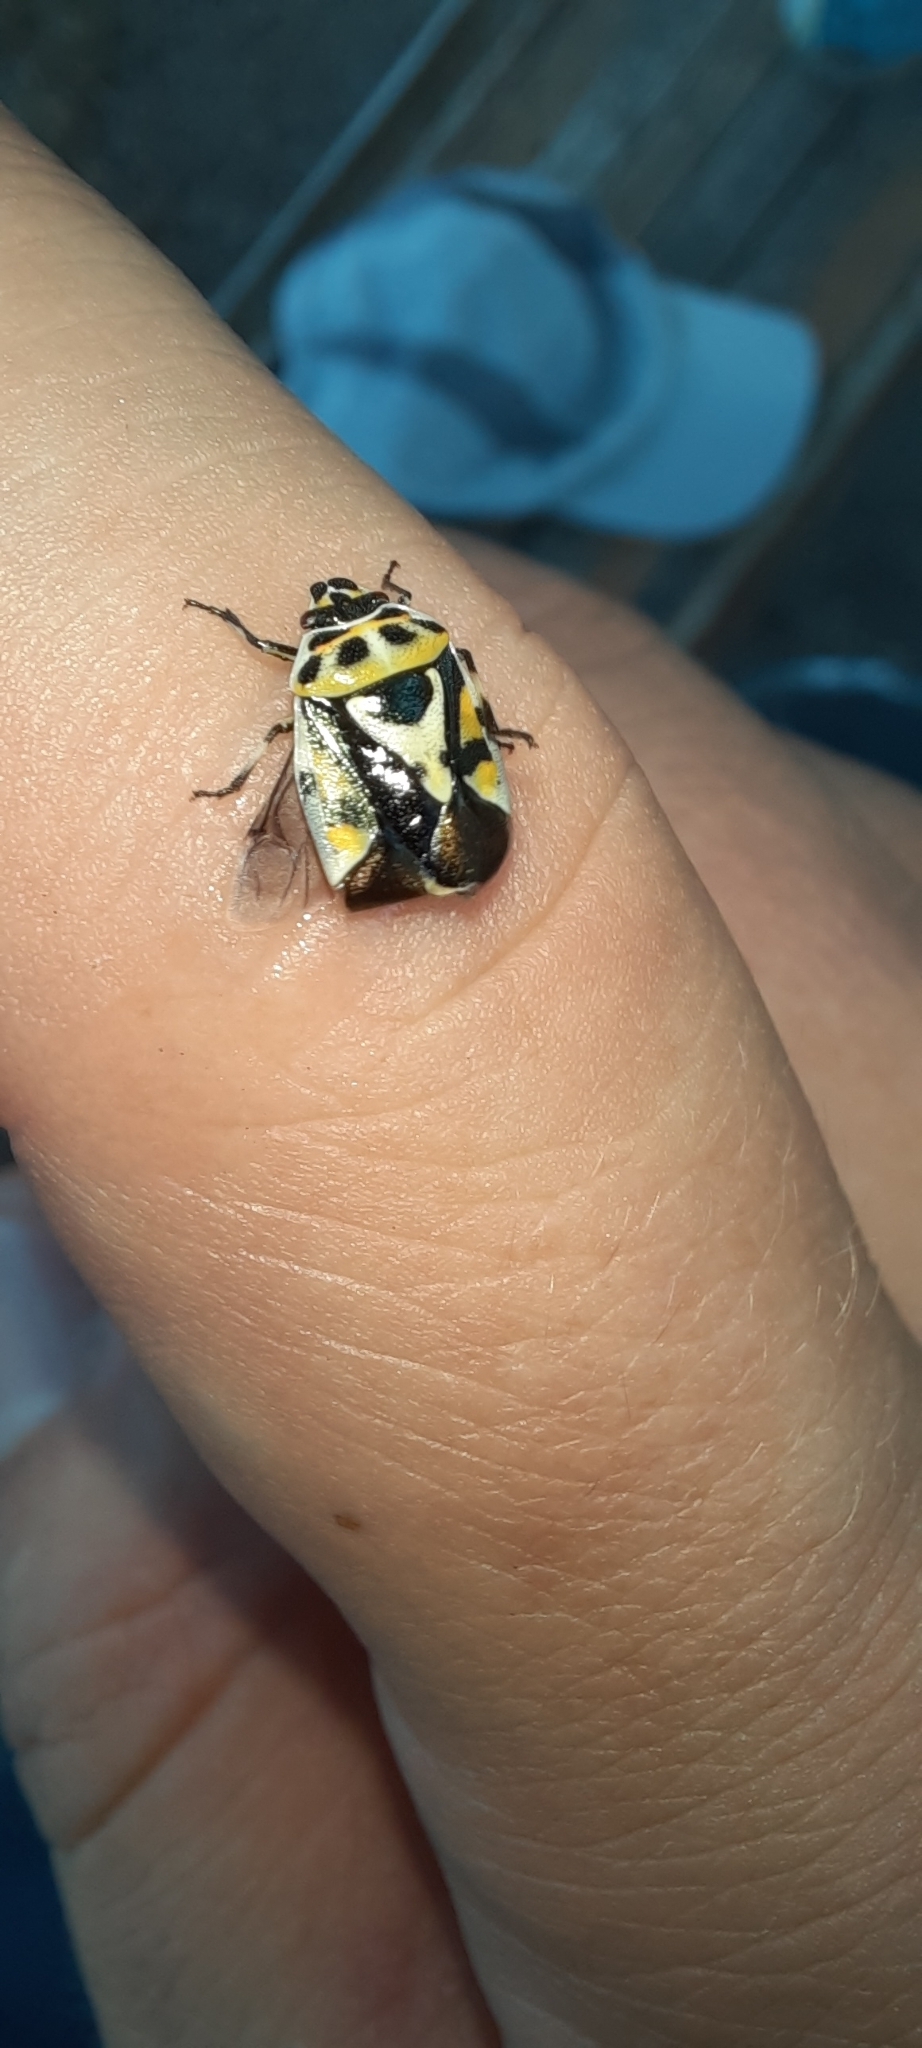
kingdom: Animalia
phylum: Arthropoda
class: Insecta
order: Hemiptera
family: Pentatomidae
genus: Eurydema
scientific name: Eurydema ornata
